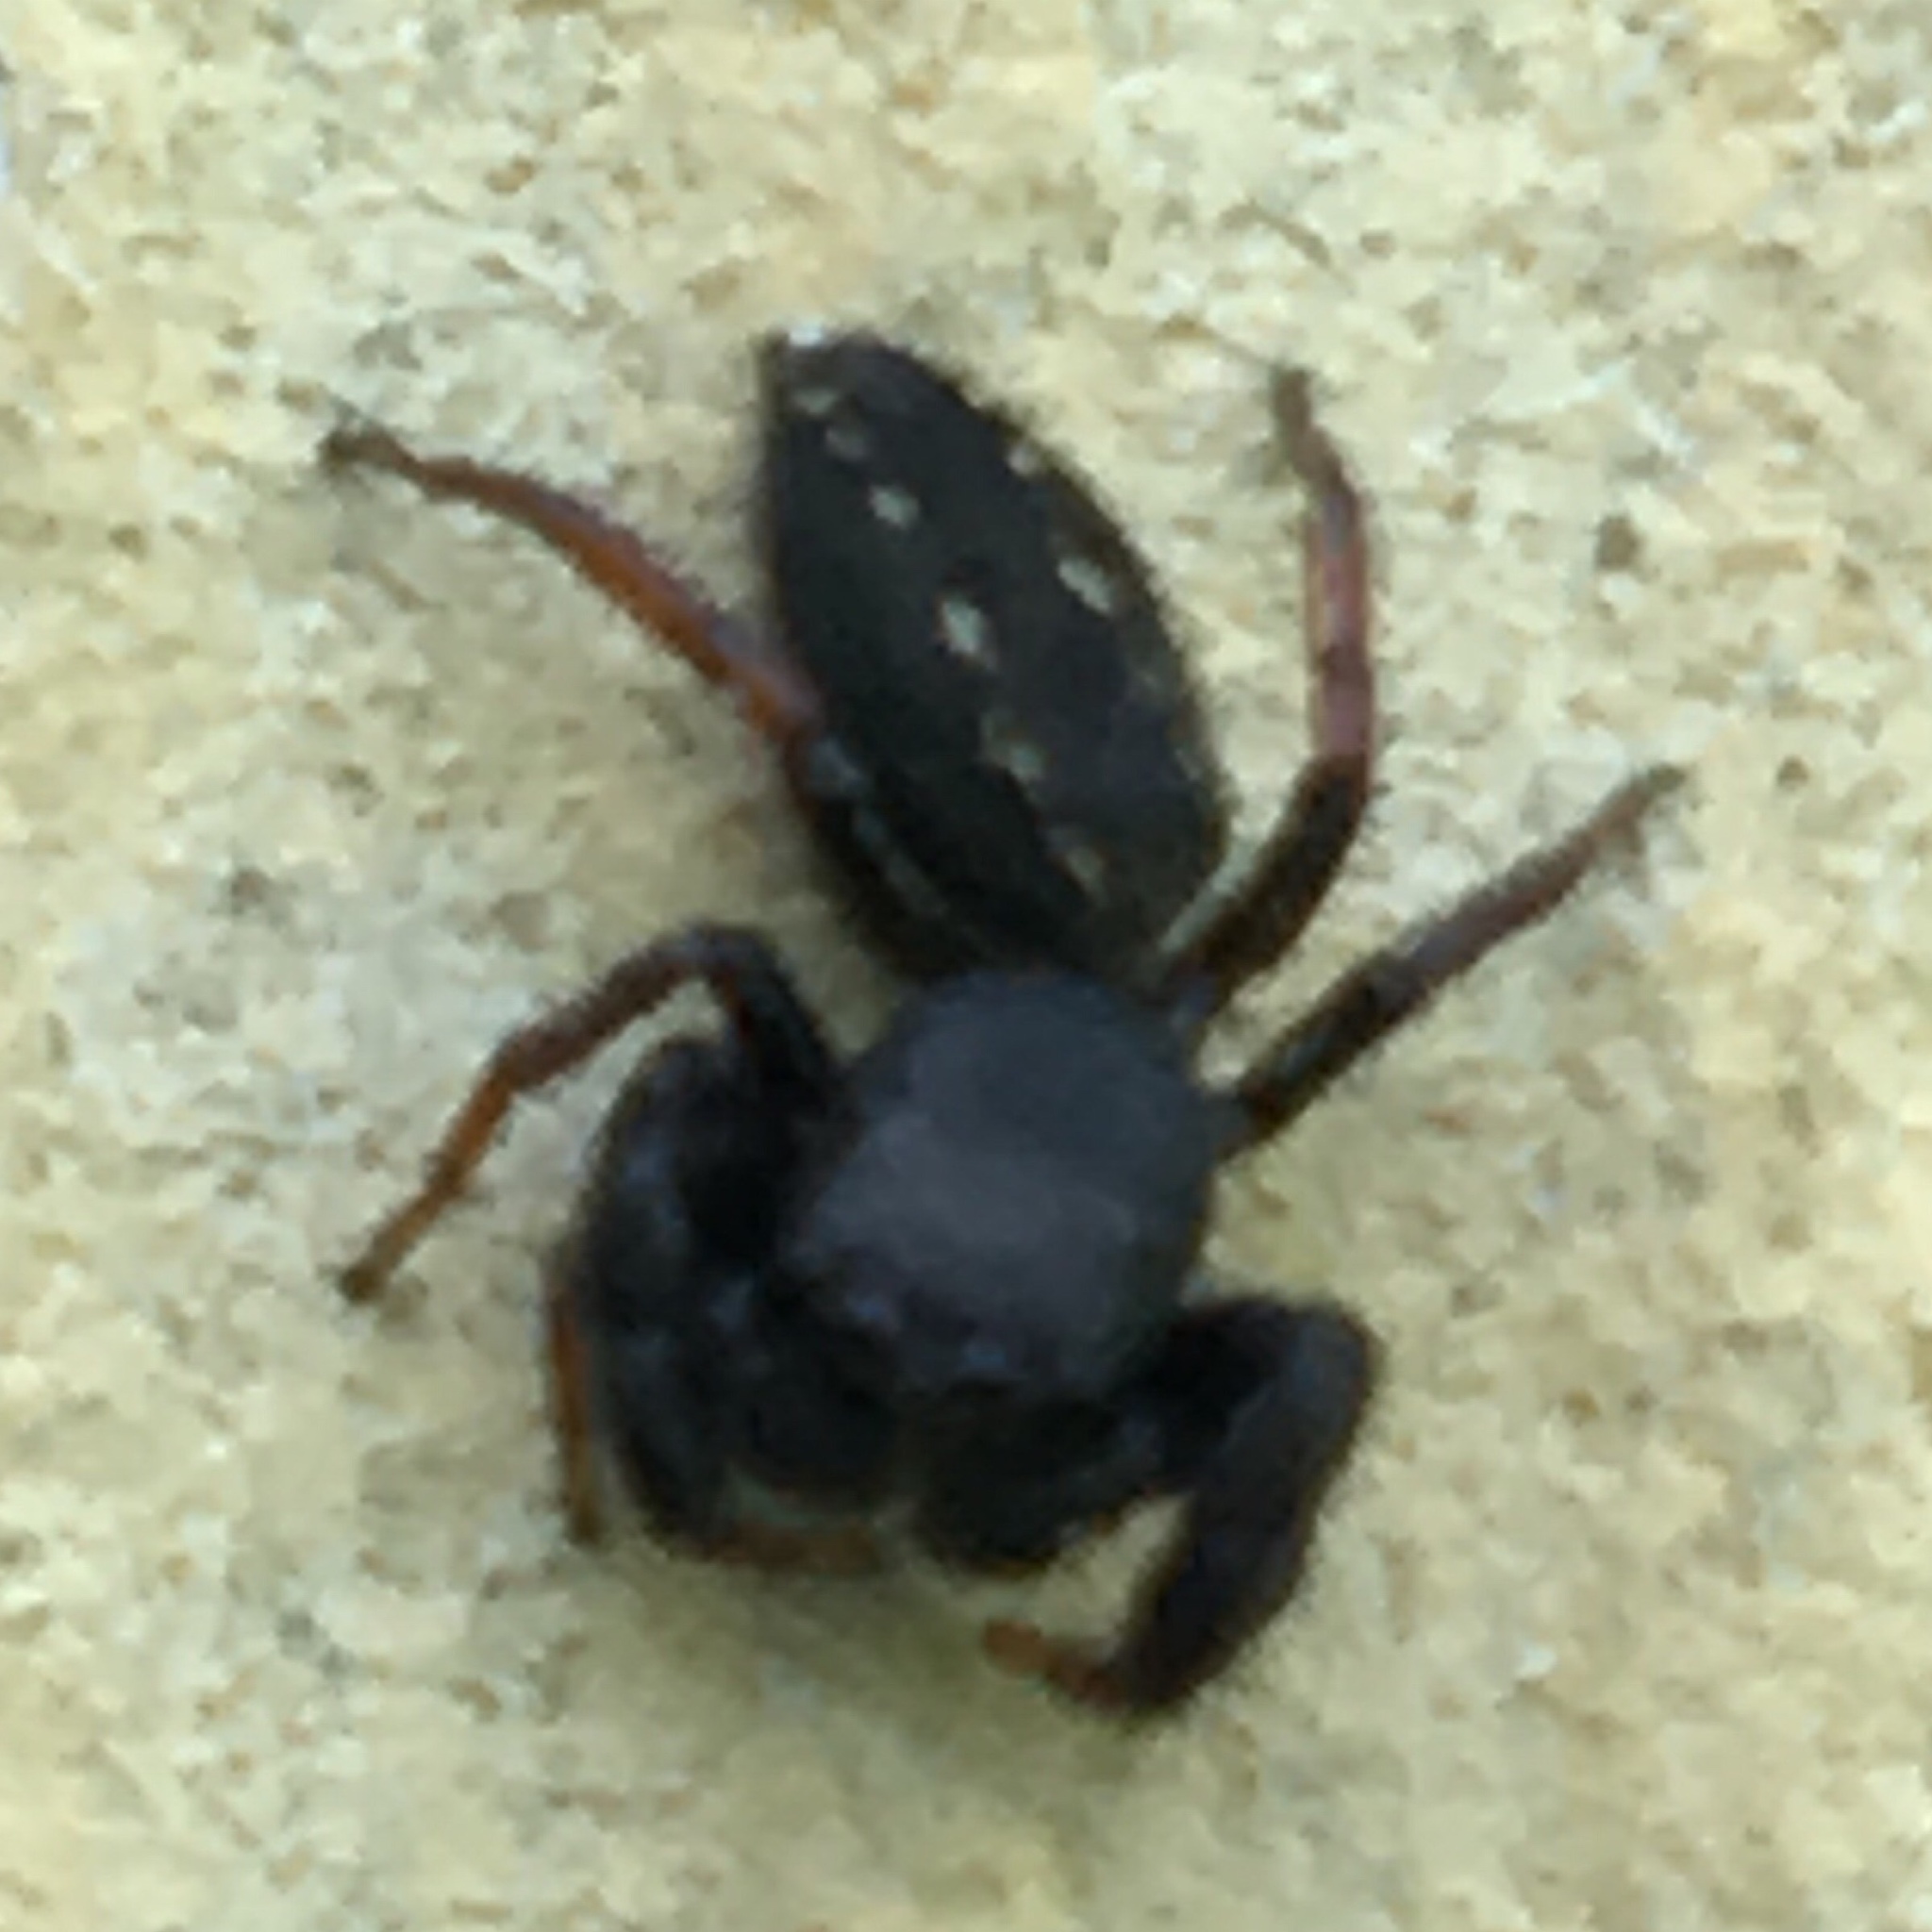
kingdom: Animalia
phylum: Arthropoda
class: Arachnida
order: Araneae
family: Salticidae
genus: Metacyrba
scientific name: Metacyrba taeniola
